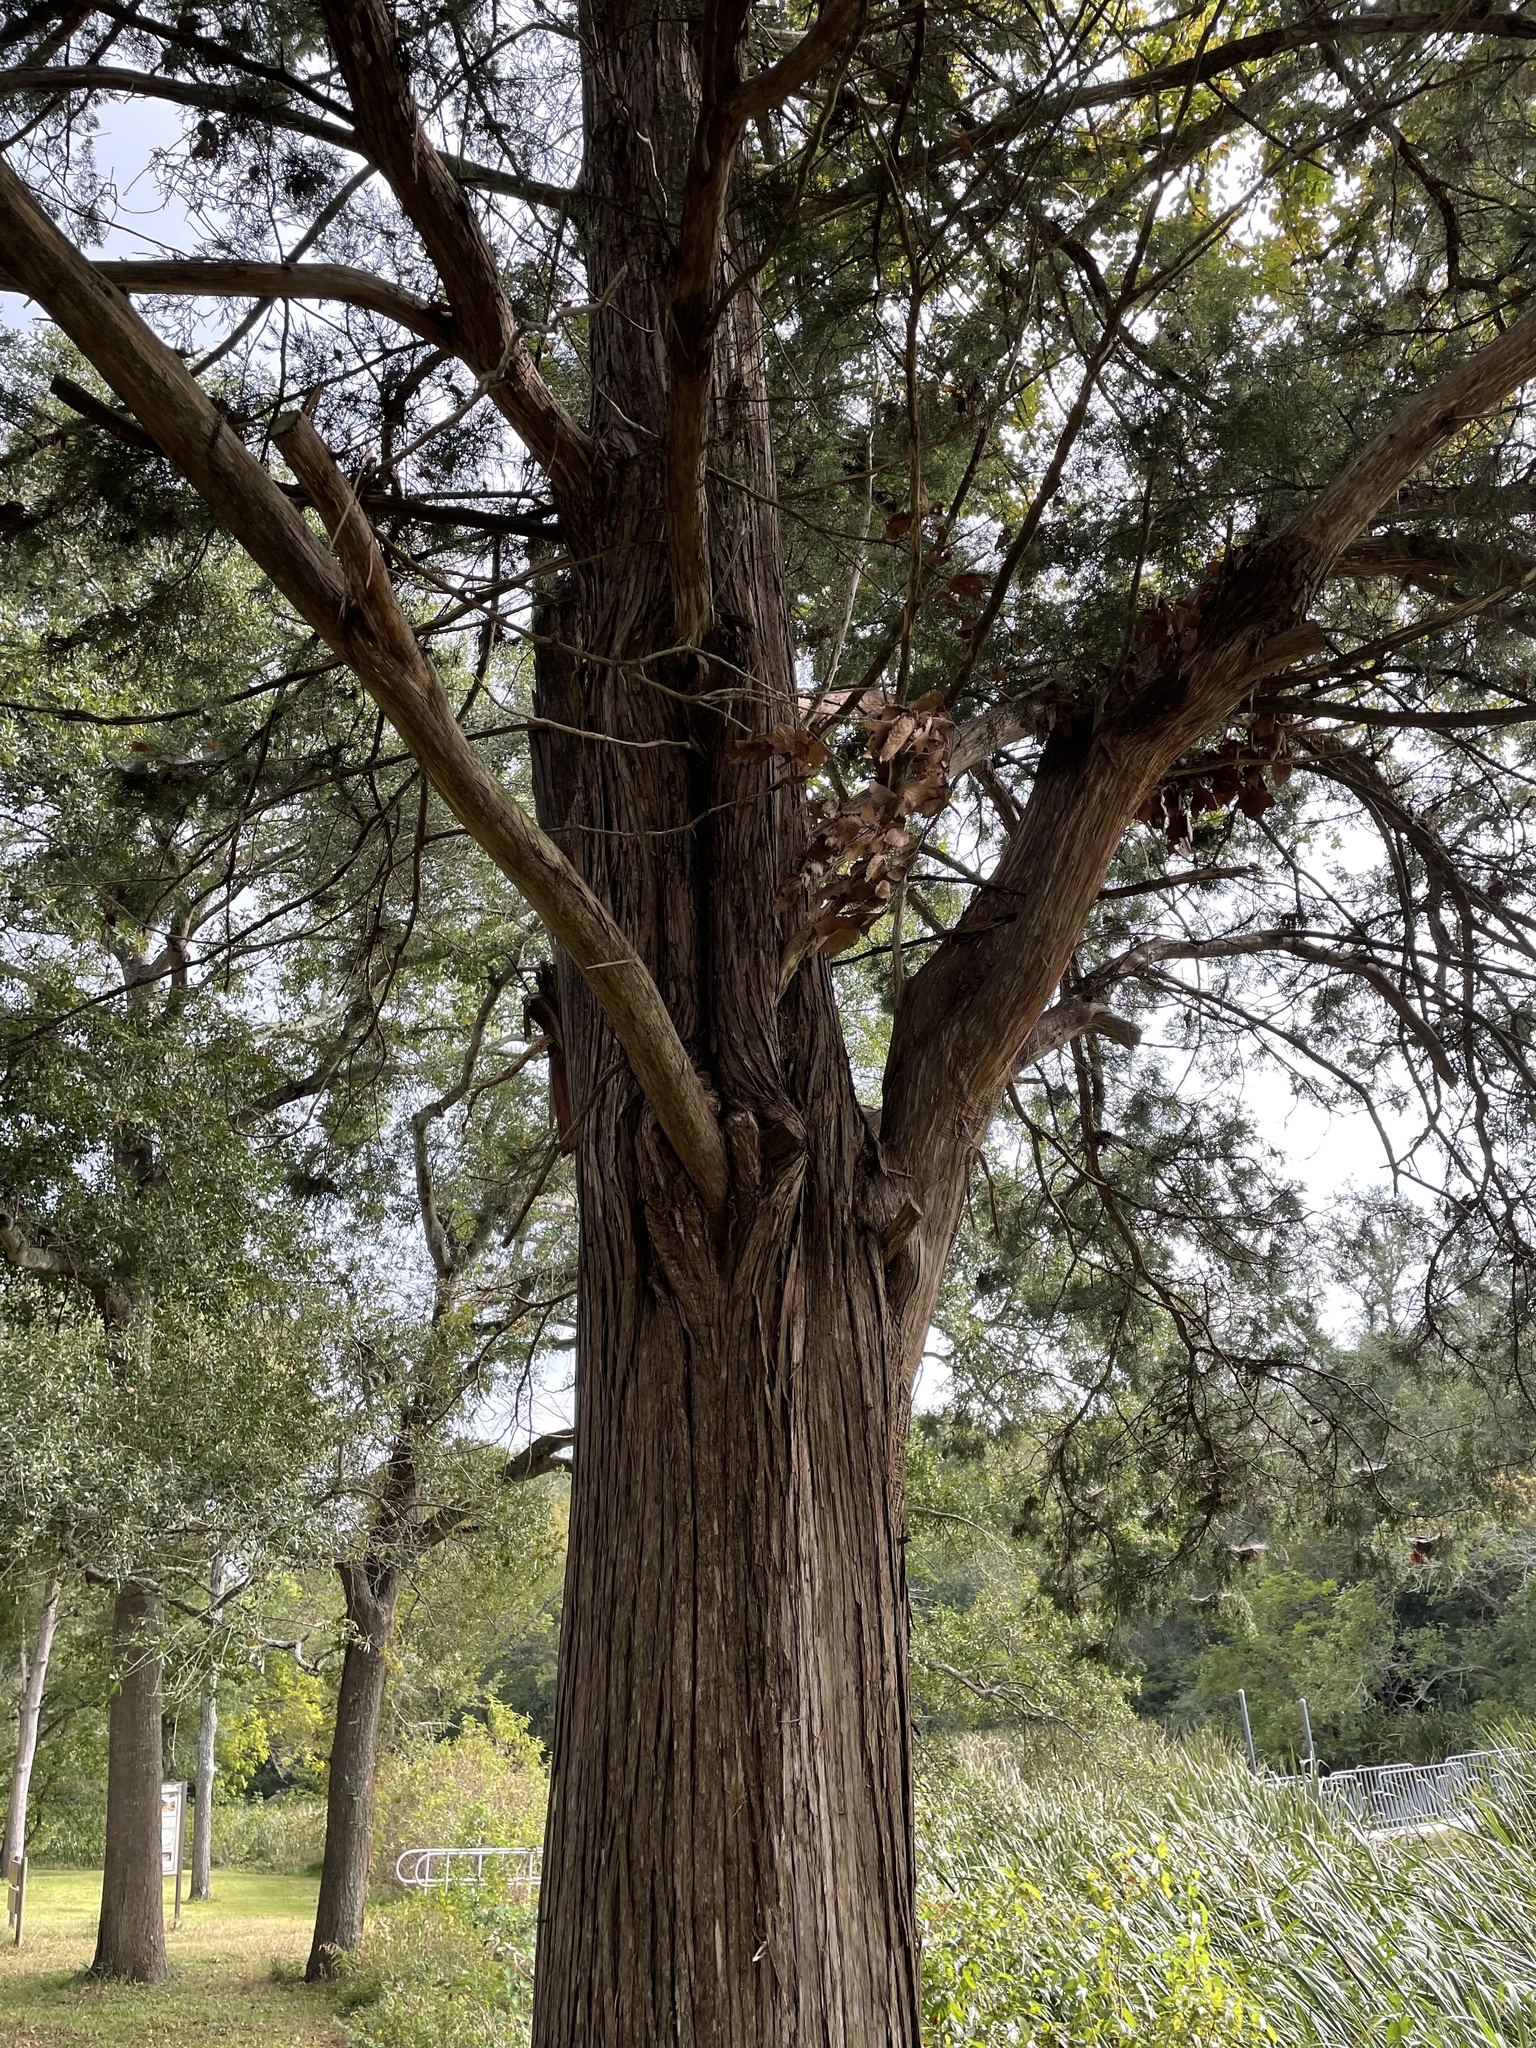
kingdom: Plantae
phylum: Tracheophyta
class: Pinopsida
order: Pinales
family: Cupressaceae
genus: Juniperus
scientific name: Juniperus virginiana
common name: Red juniper
